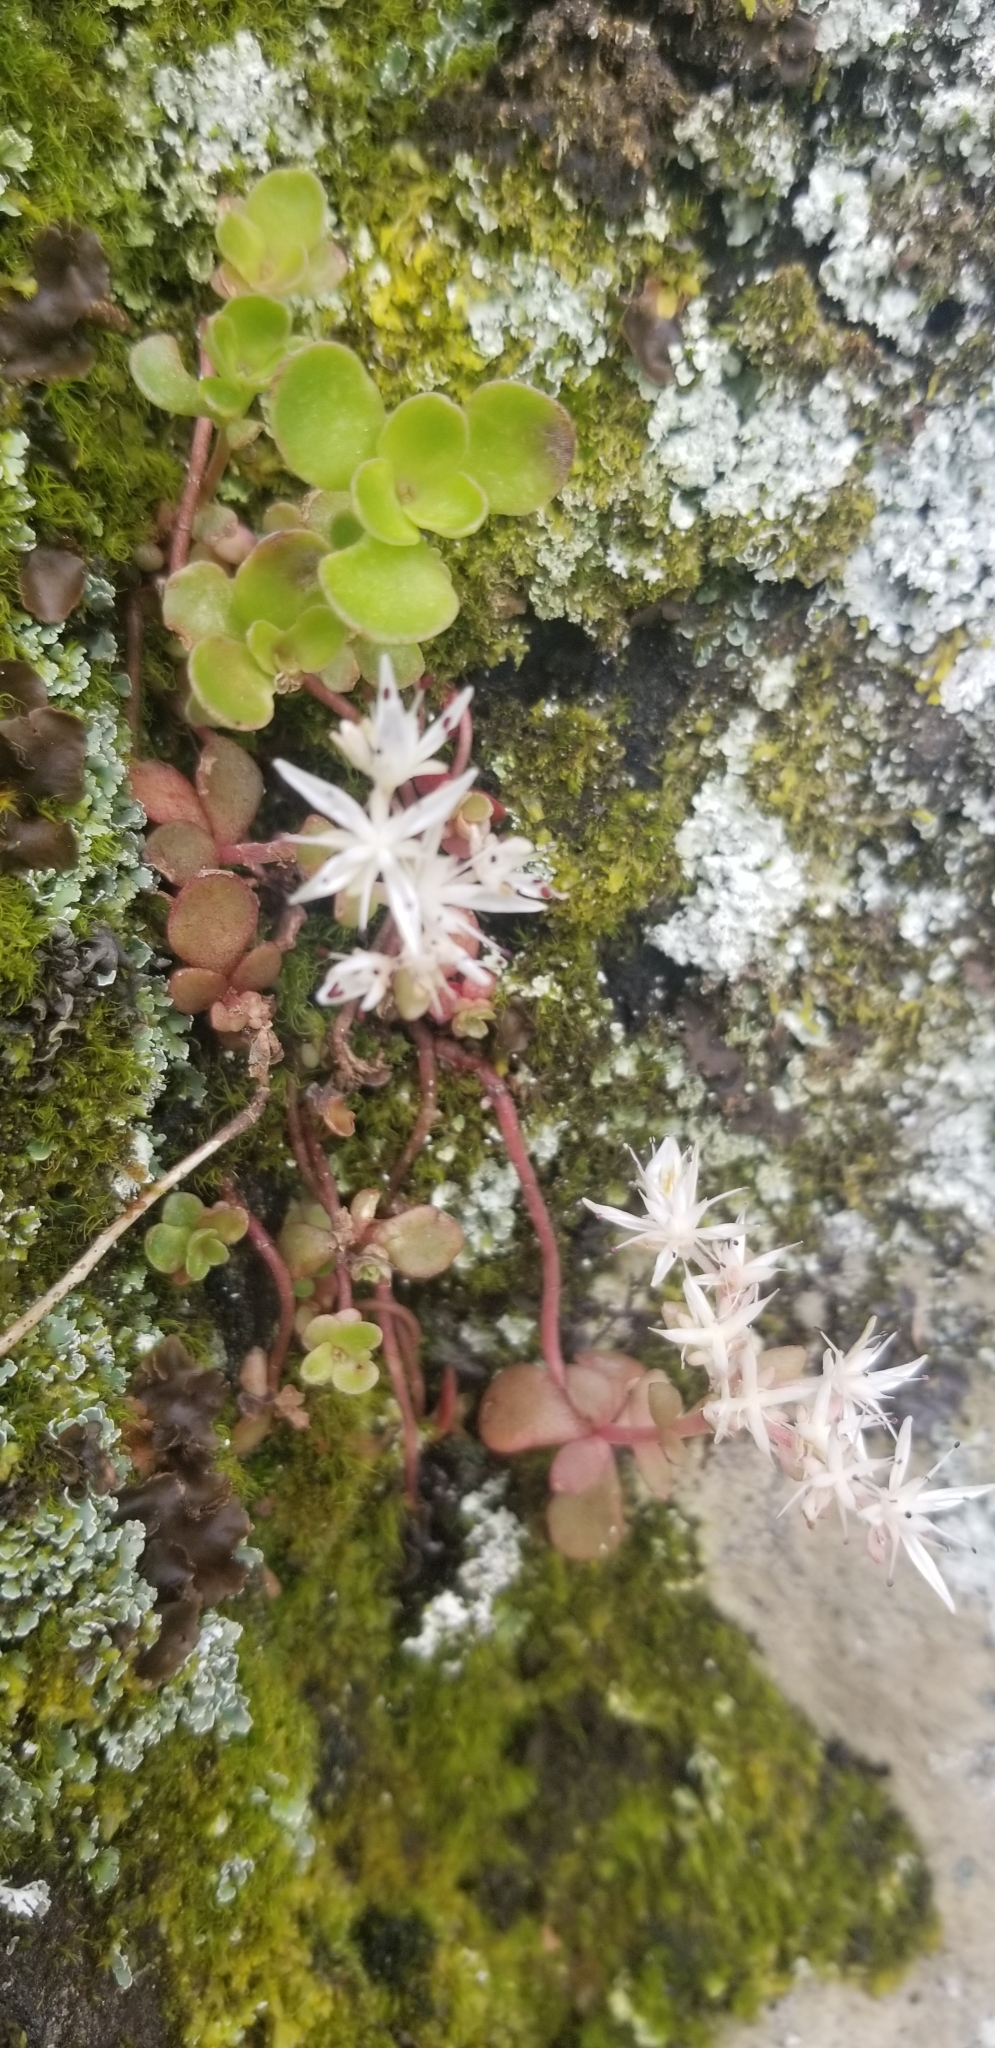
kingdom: Plantae
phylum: Tracheophyta
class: Magnoliopsida
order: Saxifragales
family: Crassulaceae
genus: Sedum
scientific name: Sedum ternatum
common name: Wild stonecrop
